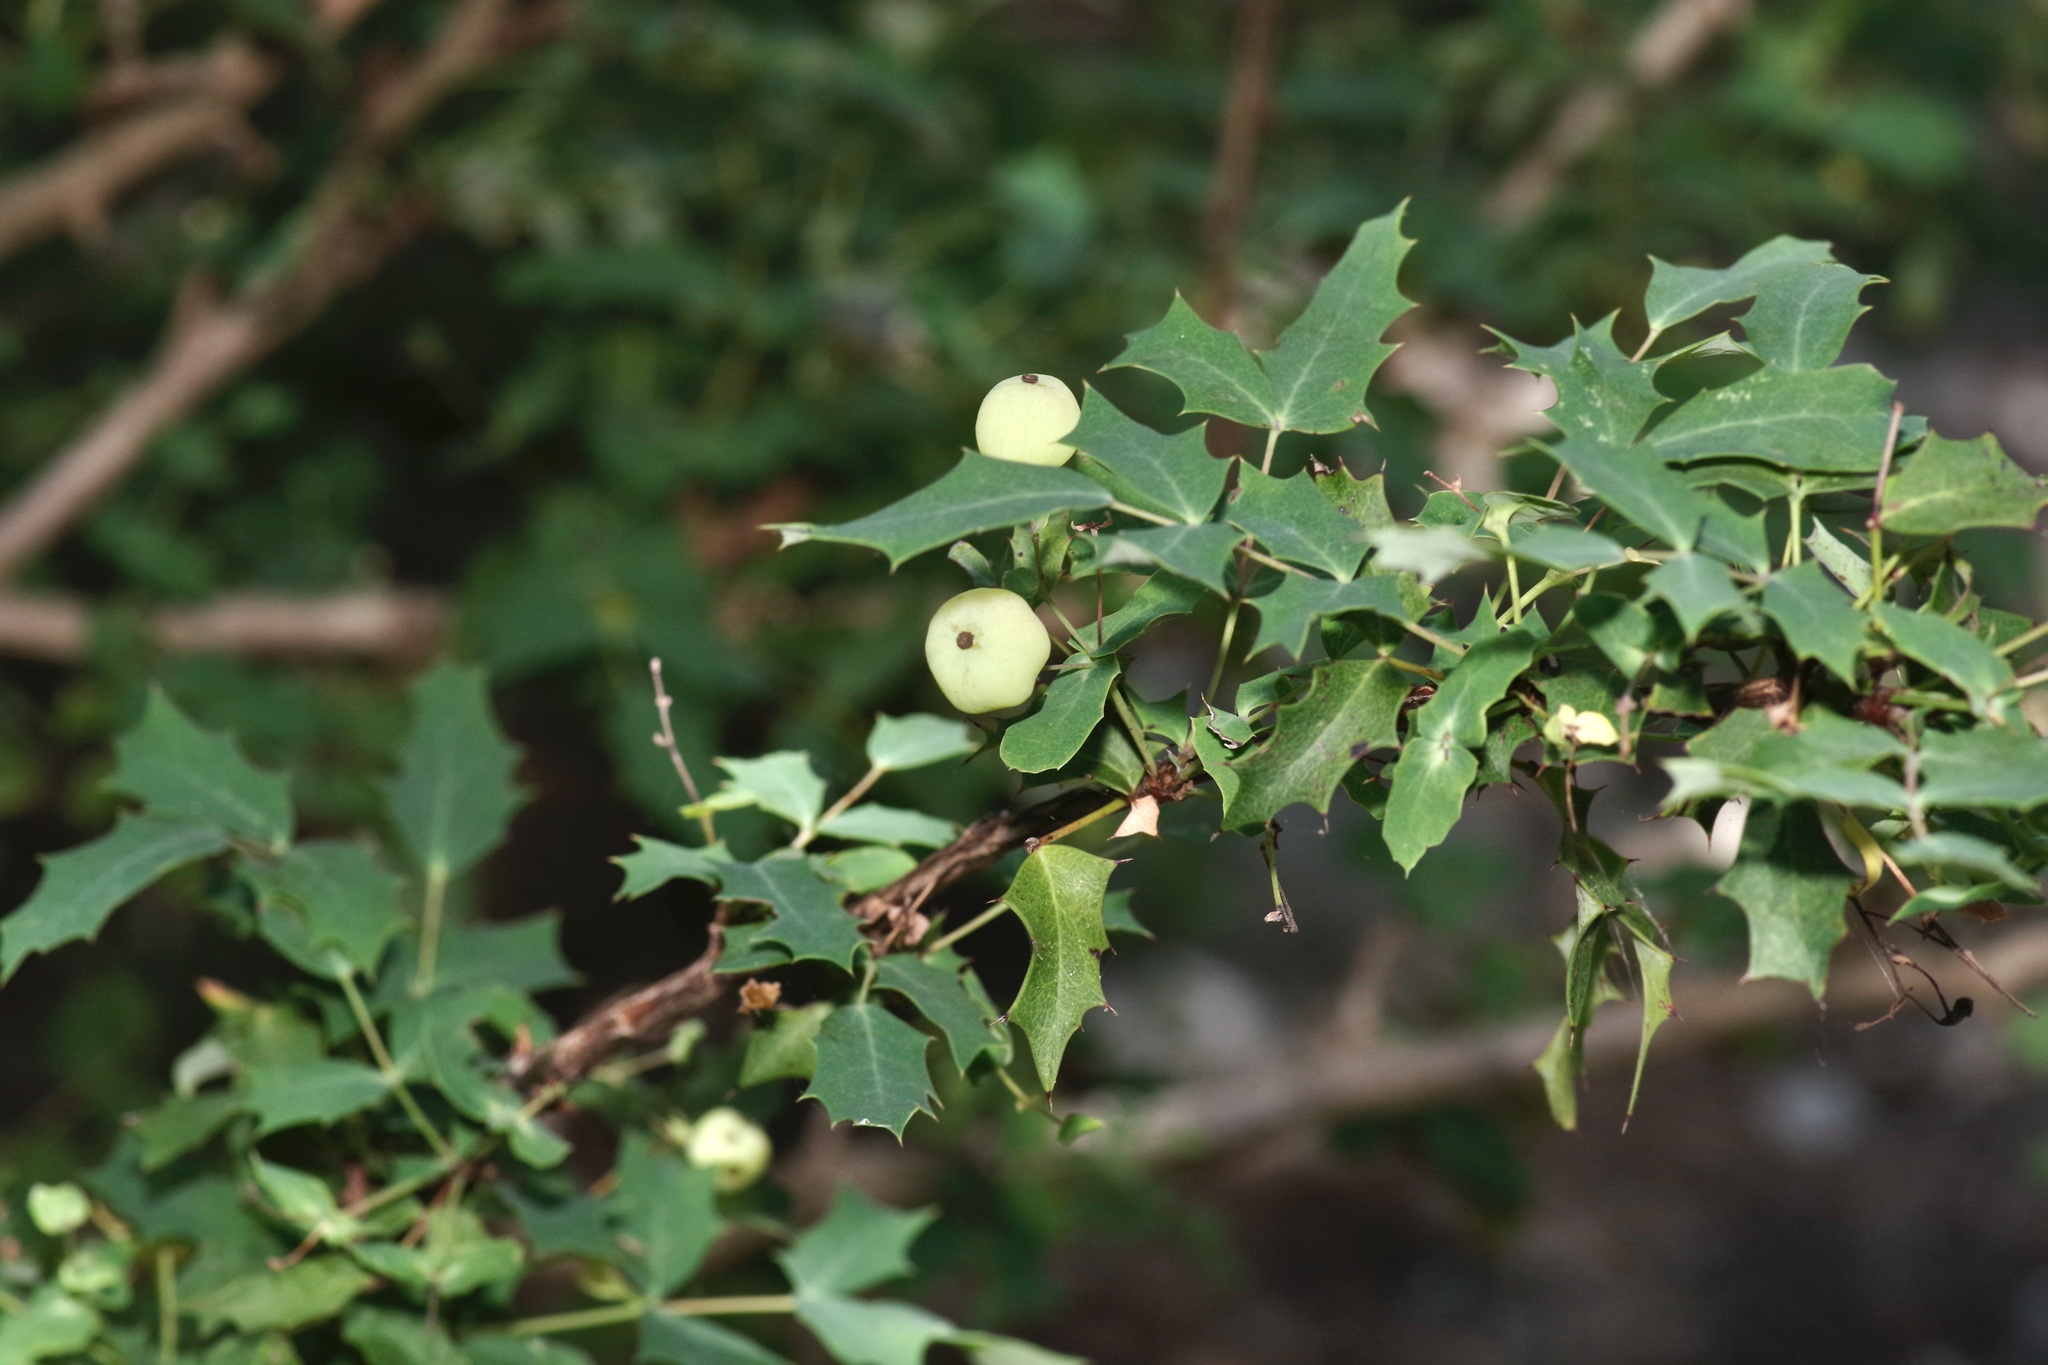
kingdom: Plantae
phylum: Tracheophyta
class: Magnoliopsida
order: Ranunculales
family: Berberidaceae
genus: Berberis
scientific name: Berberis swaseyi
